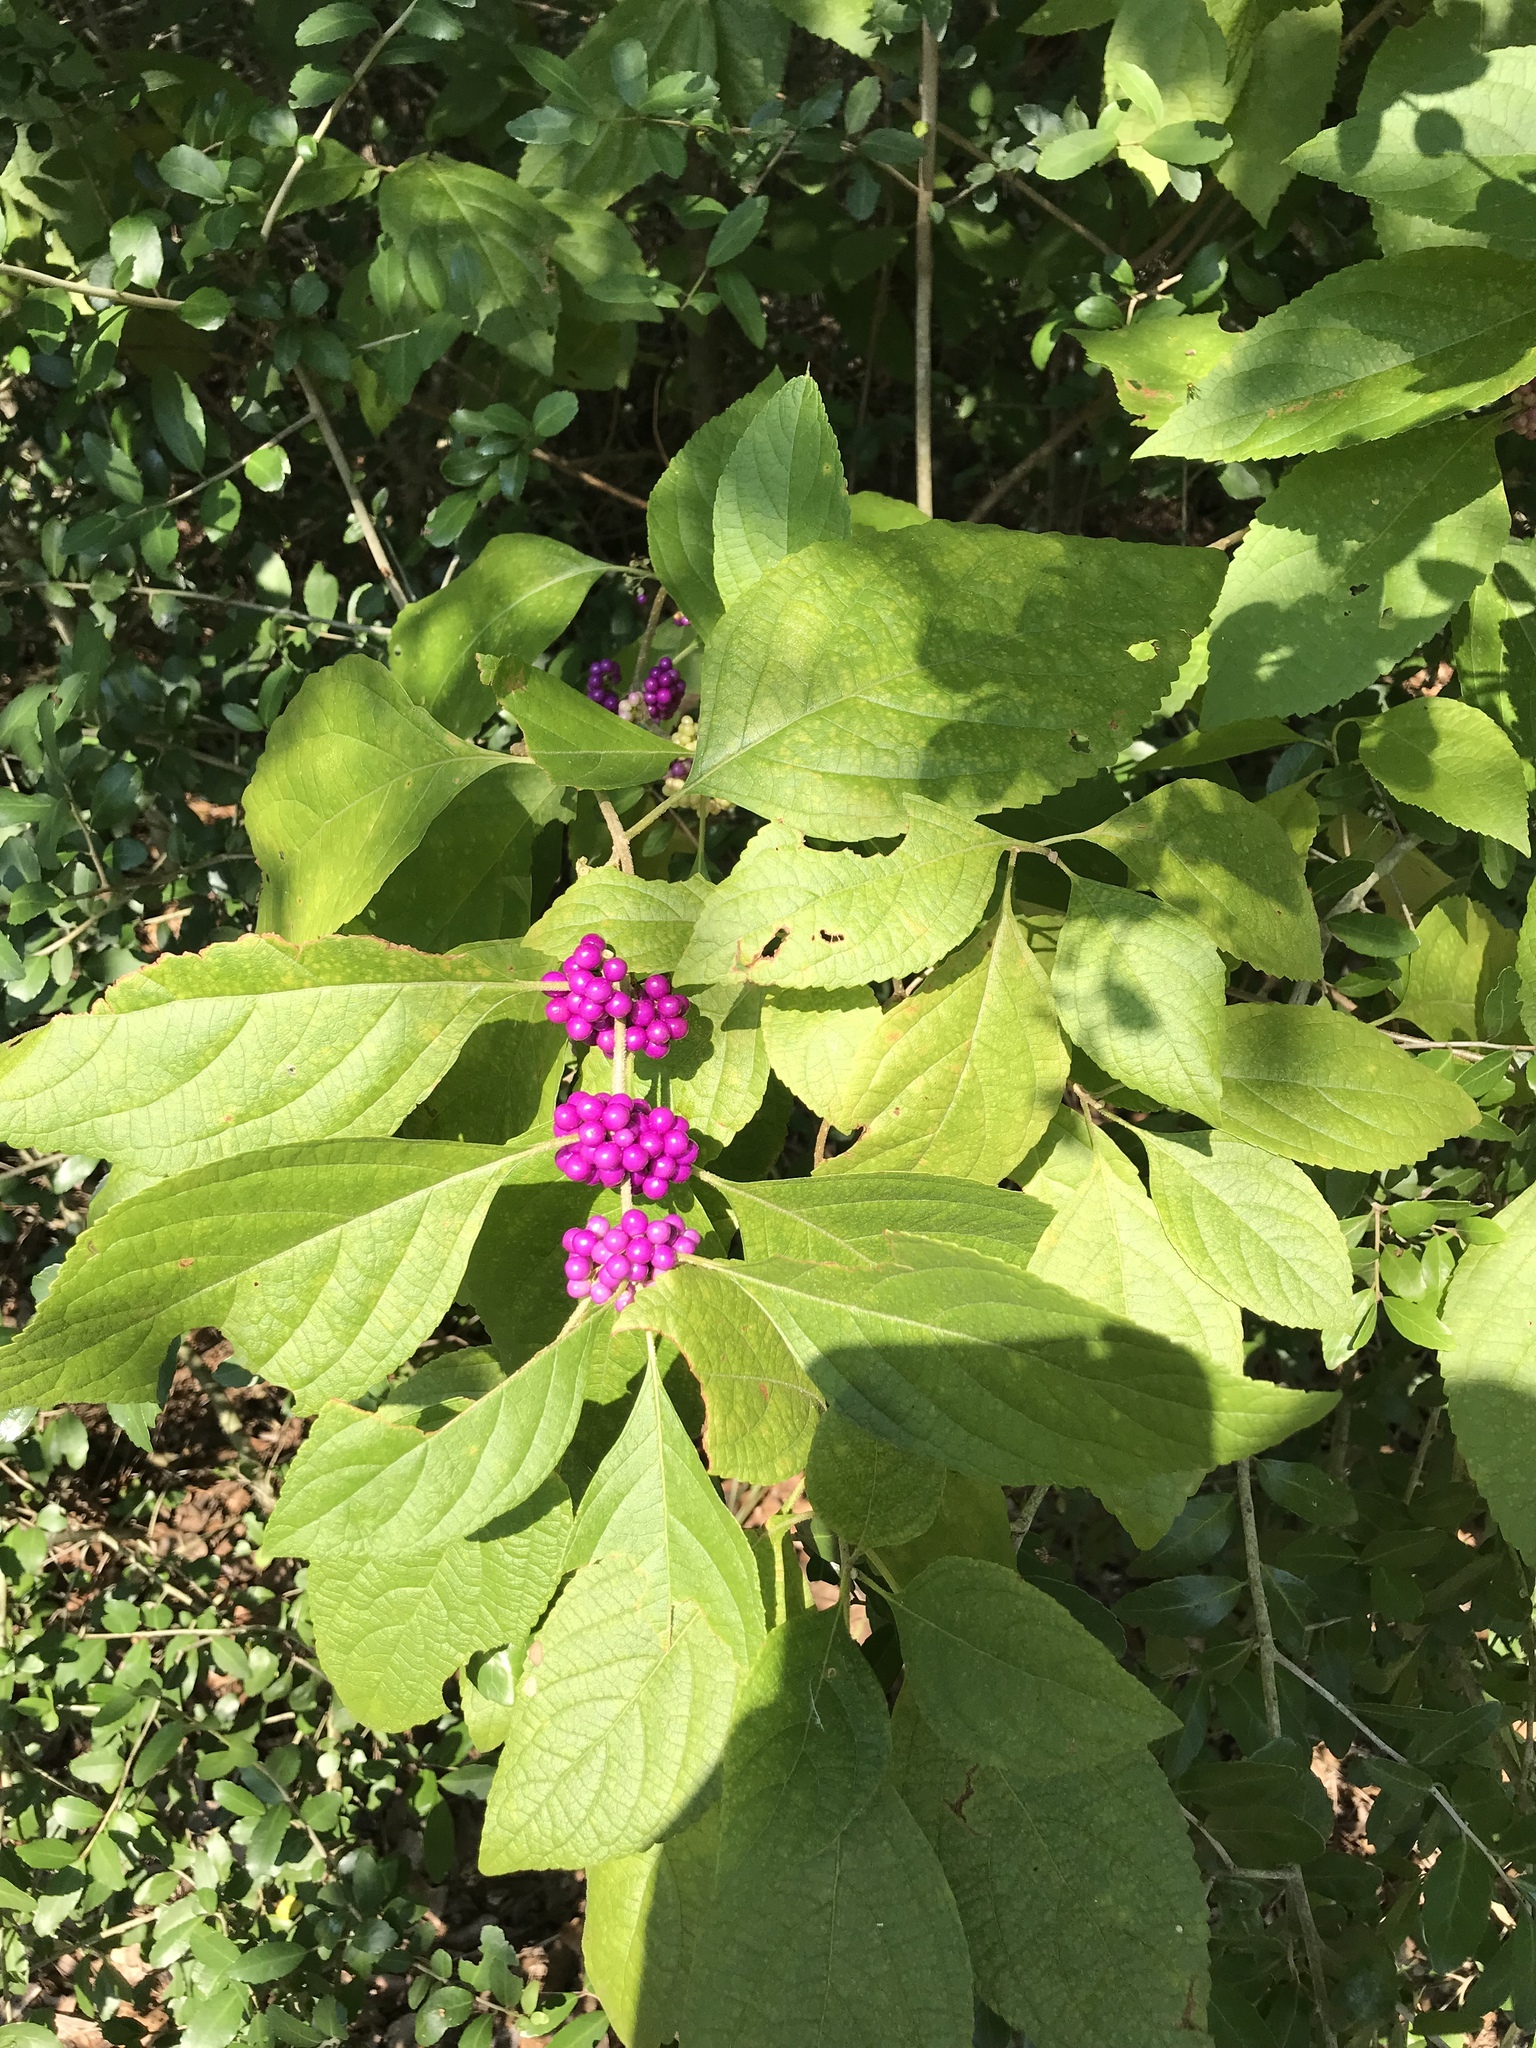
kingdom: Plantae
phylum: Tracheophyta
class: Magnoliopsida
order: Lamiales
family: Lamiaceae
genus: Callicarpa
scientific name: Callicarpa americana
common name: American beautyberry
